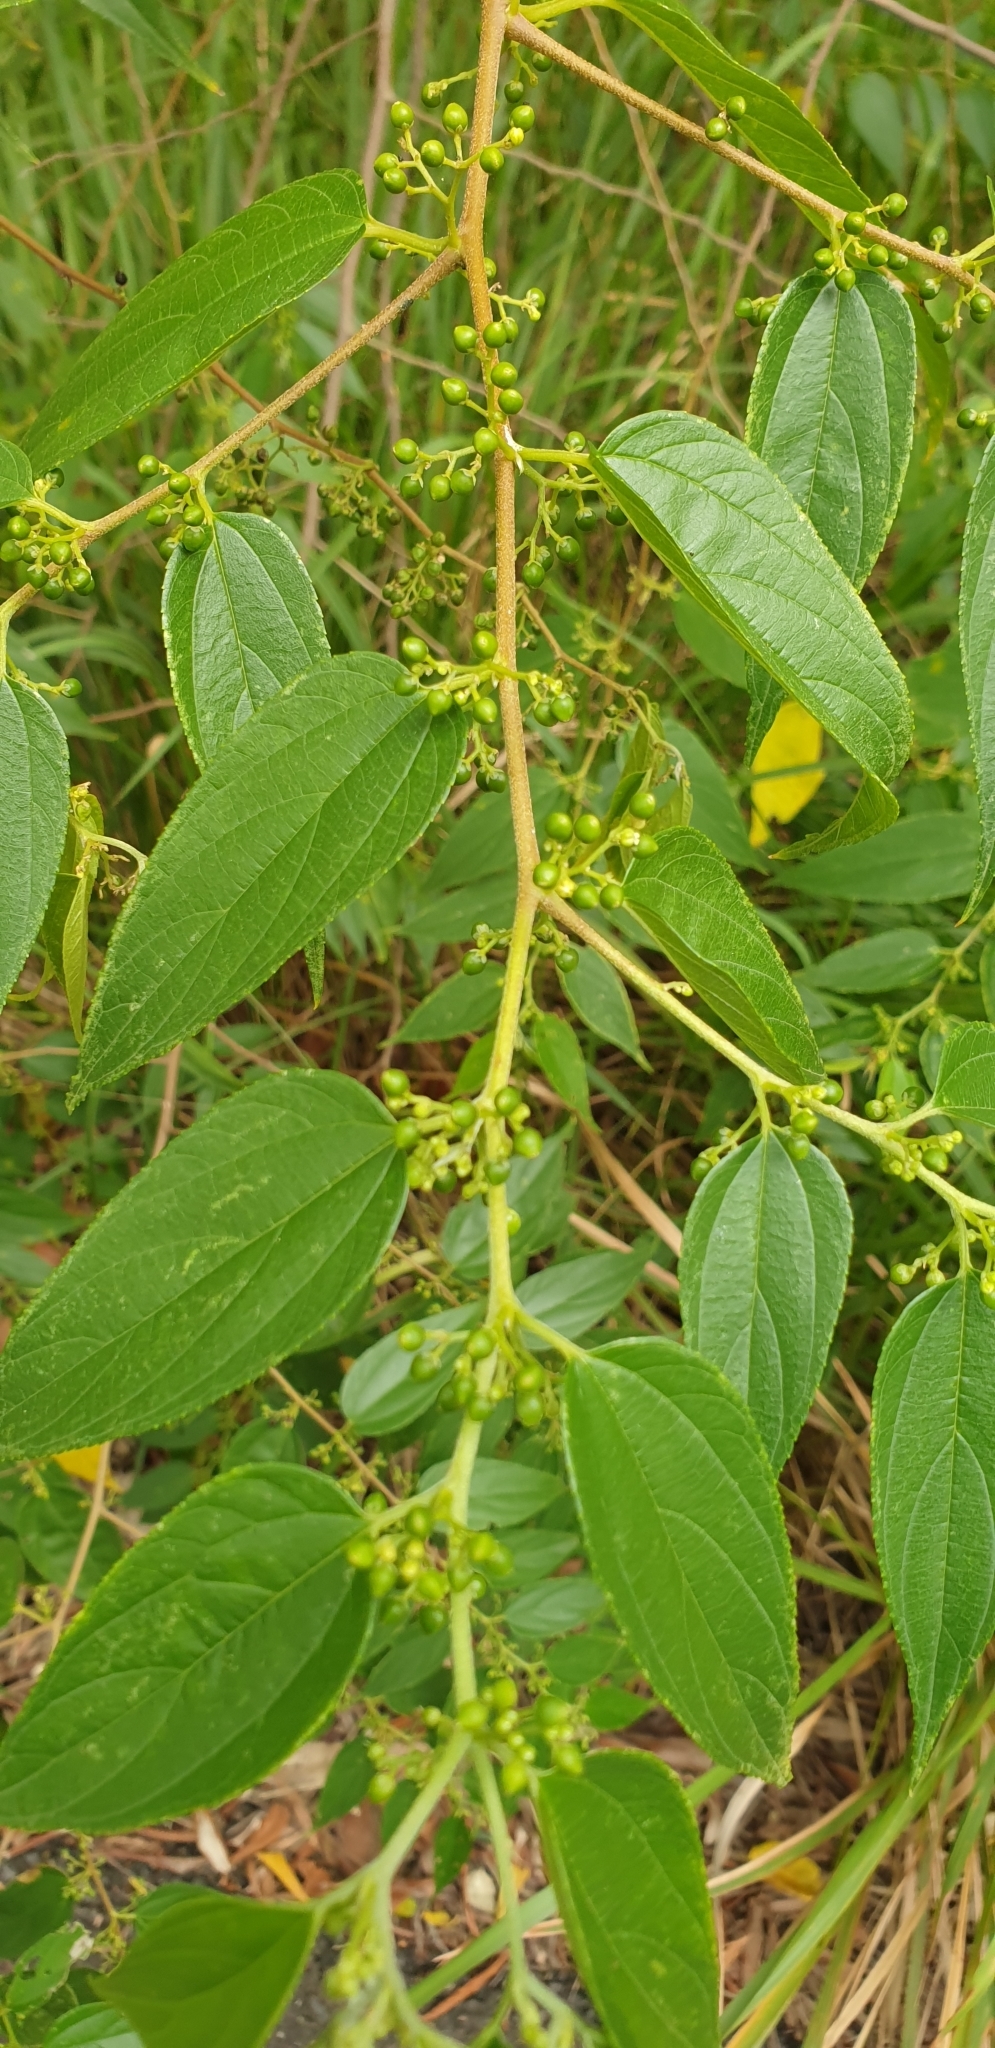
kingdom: Plantae
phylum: Tracheophyta
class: Magnoliopsida
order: Rosales
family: Cannabaceae
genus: Trema
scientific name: Trema tomentosum
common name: Peach-leaf-poisonbush
